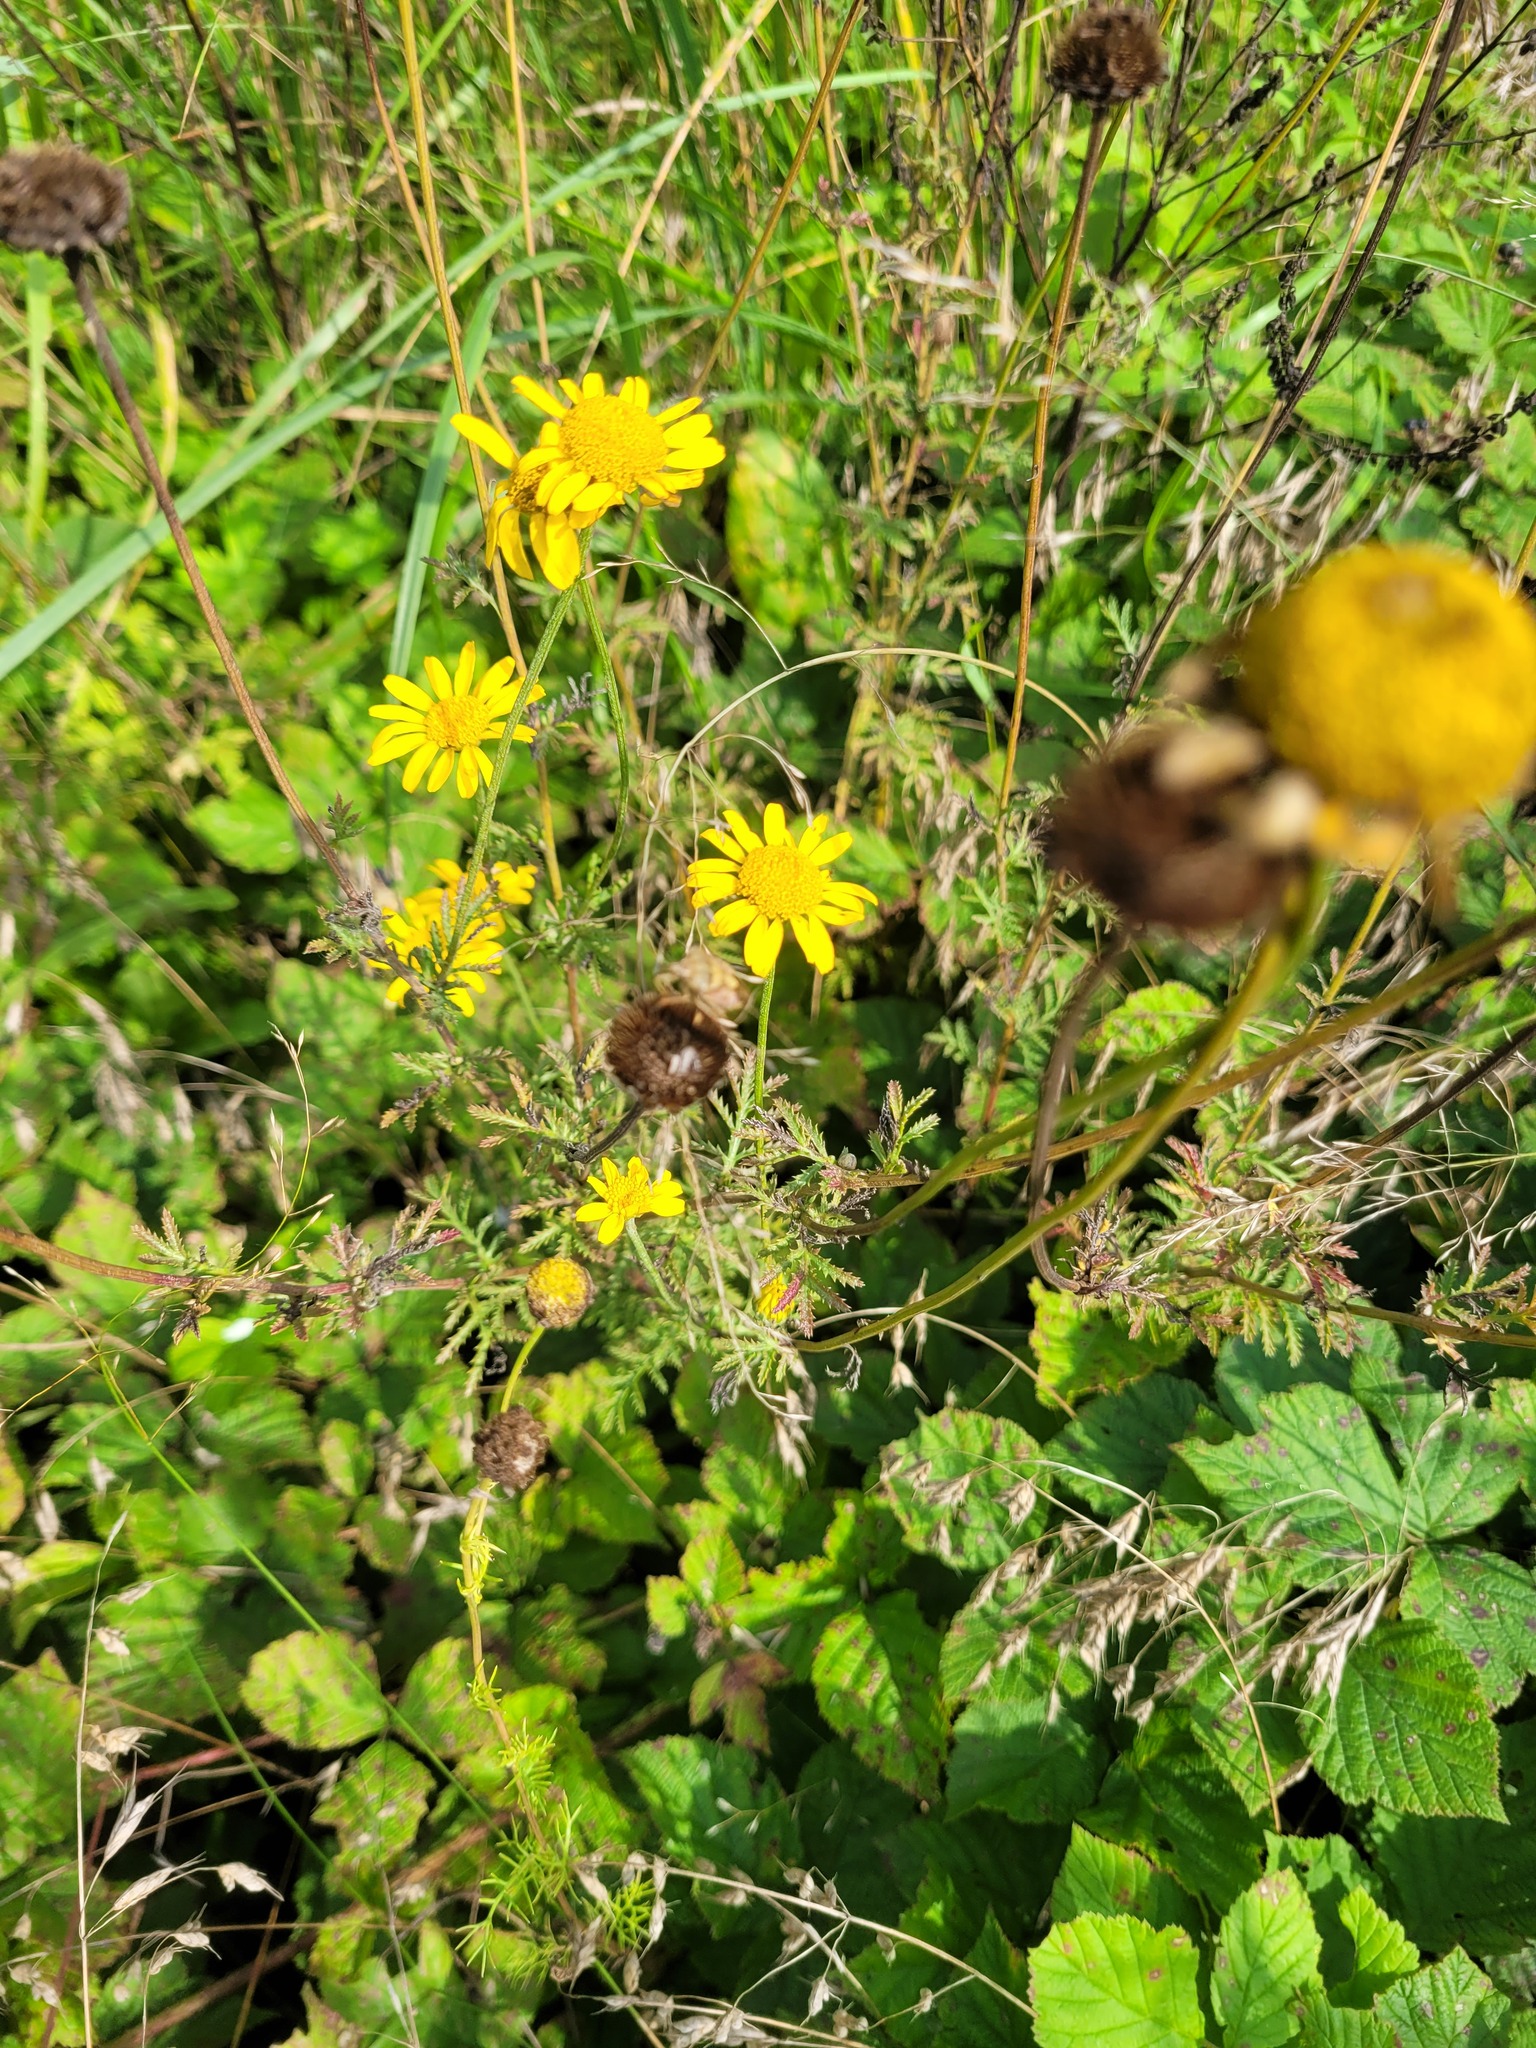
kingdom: Plantae
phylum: Tracheophyta
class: Magnoliopsida
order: Asterales
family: Asteraceae
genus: Cota
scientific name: Cota tinctoria
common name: Golden chamomile
